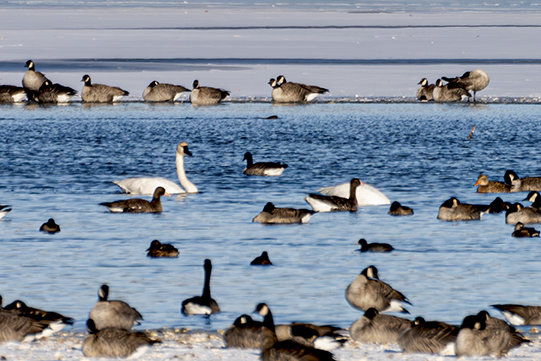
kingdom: Animalia
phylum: Chordata
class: Aves
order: Anseriformes
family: Anatidae
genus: Anser
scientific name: Anser albifrons
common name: Greater white-fronted goose
